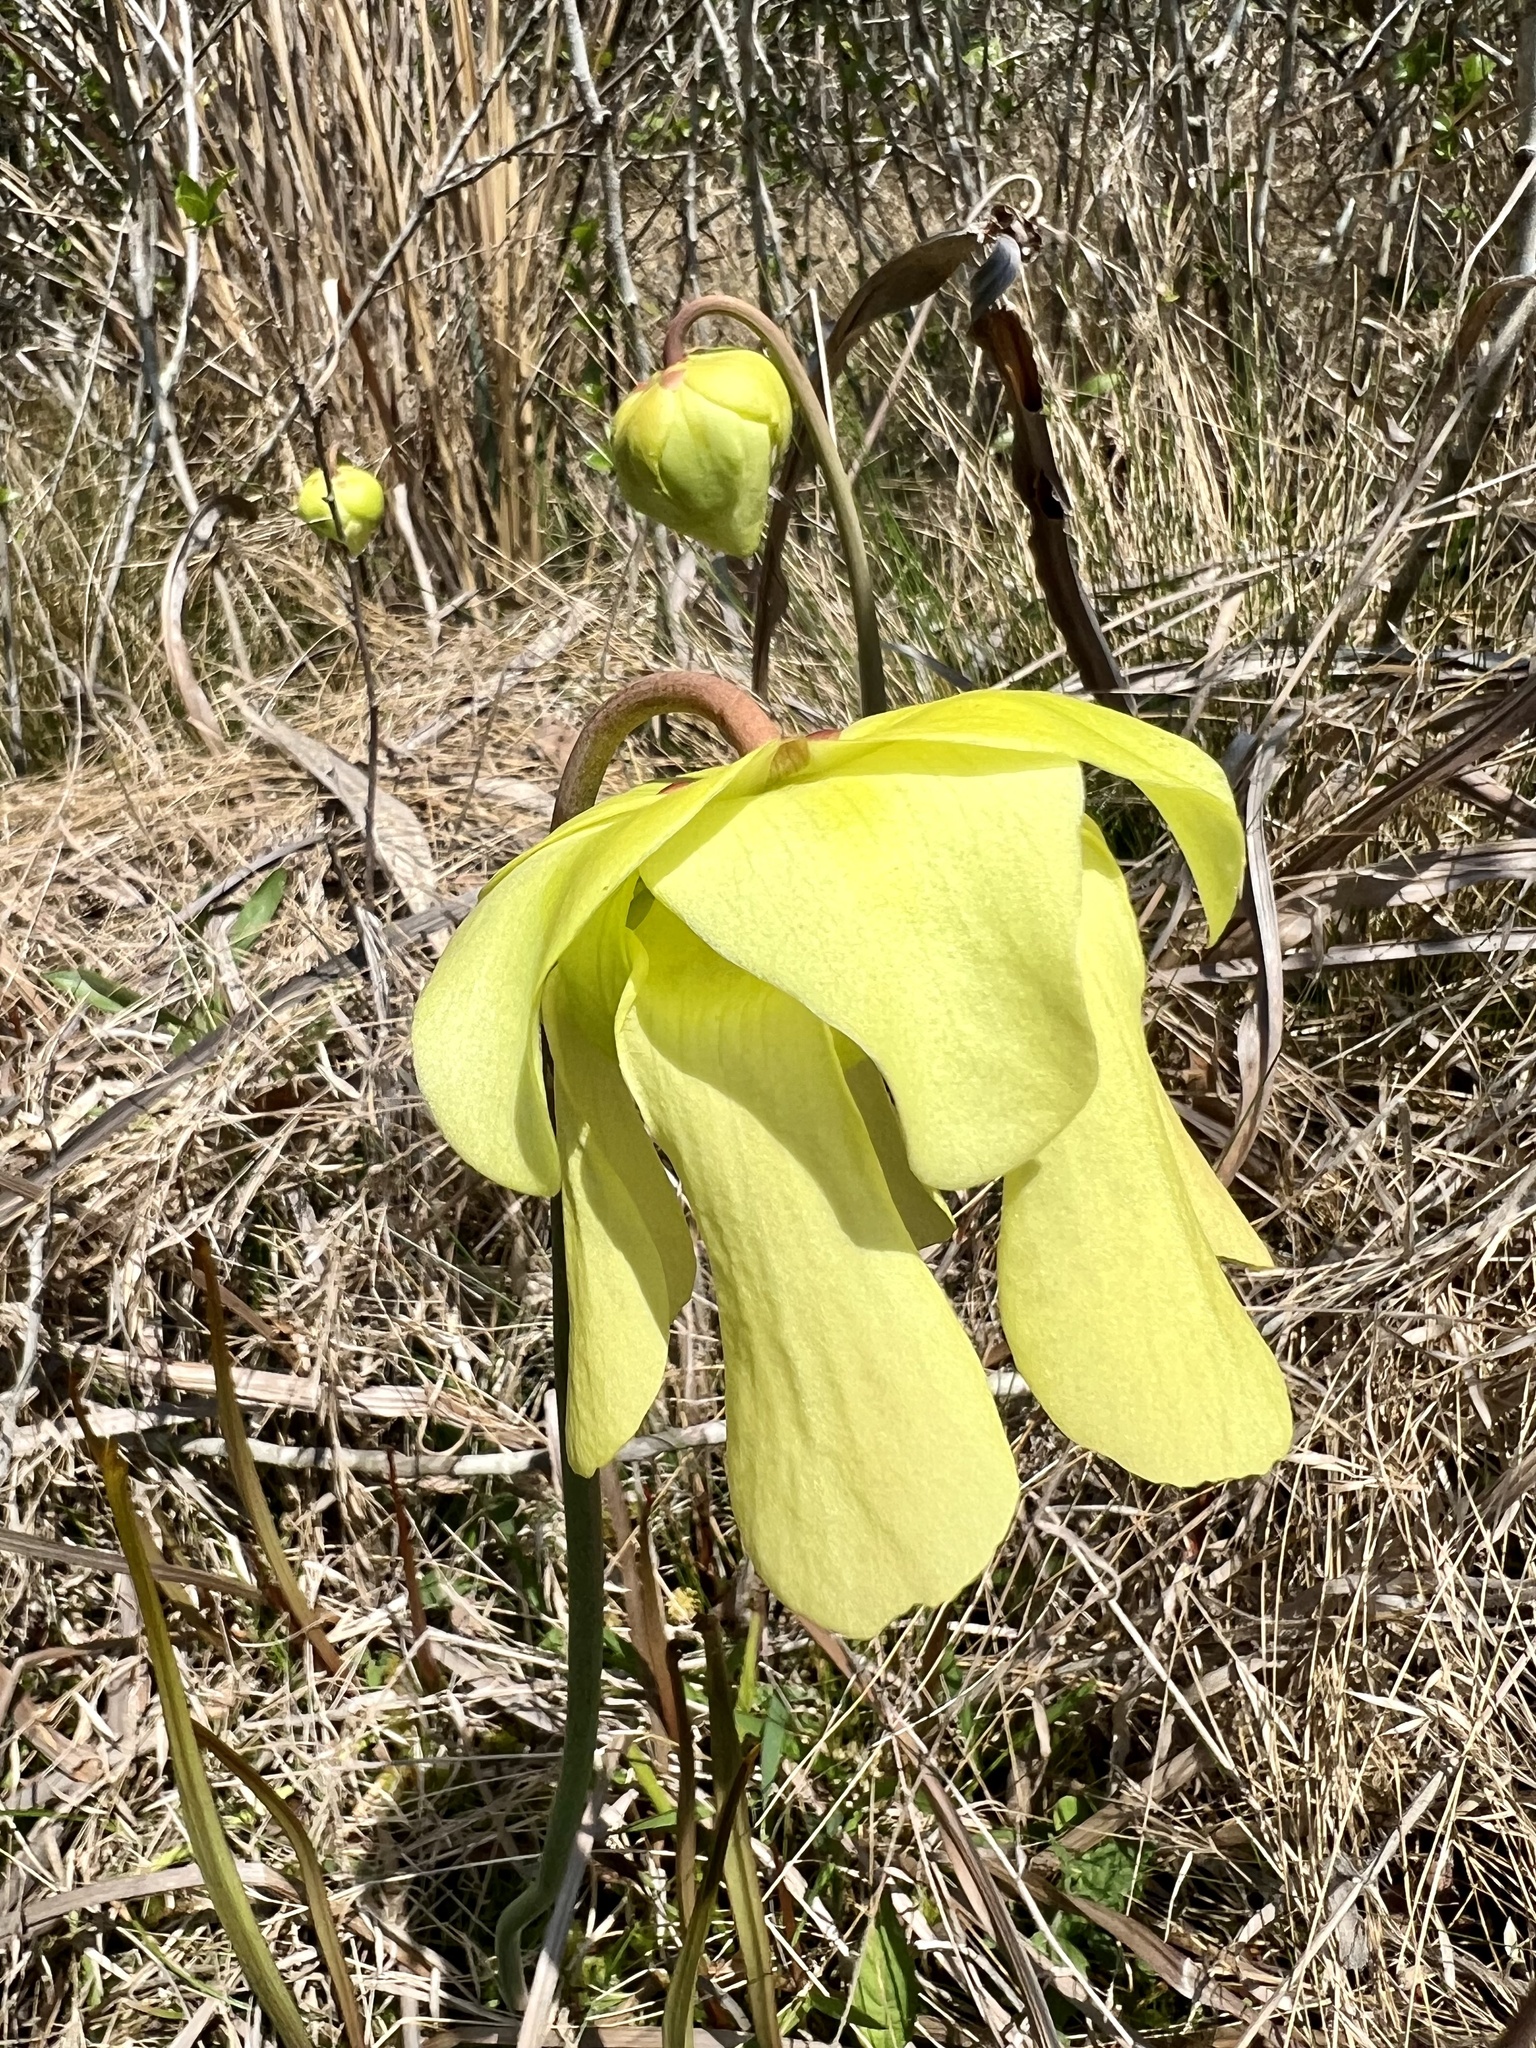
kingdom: Plantae
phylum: Tracheophyta
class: Magnoliopsida
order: Ericales
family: Sarraceniaceae
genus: Sarracenia
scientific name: Sarracenia alata
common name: Yellow trumpets
